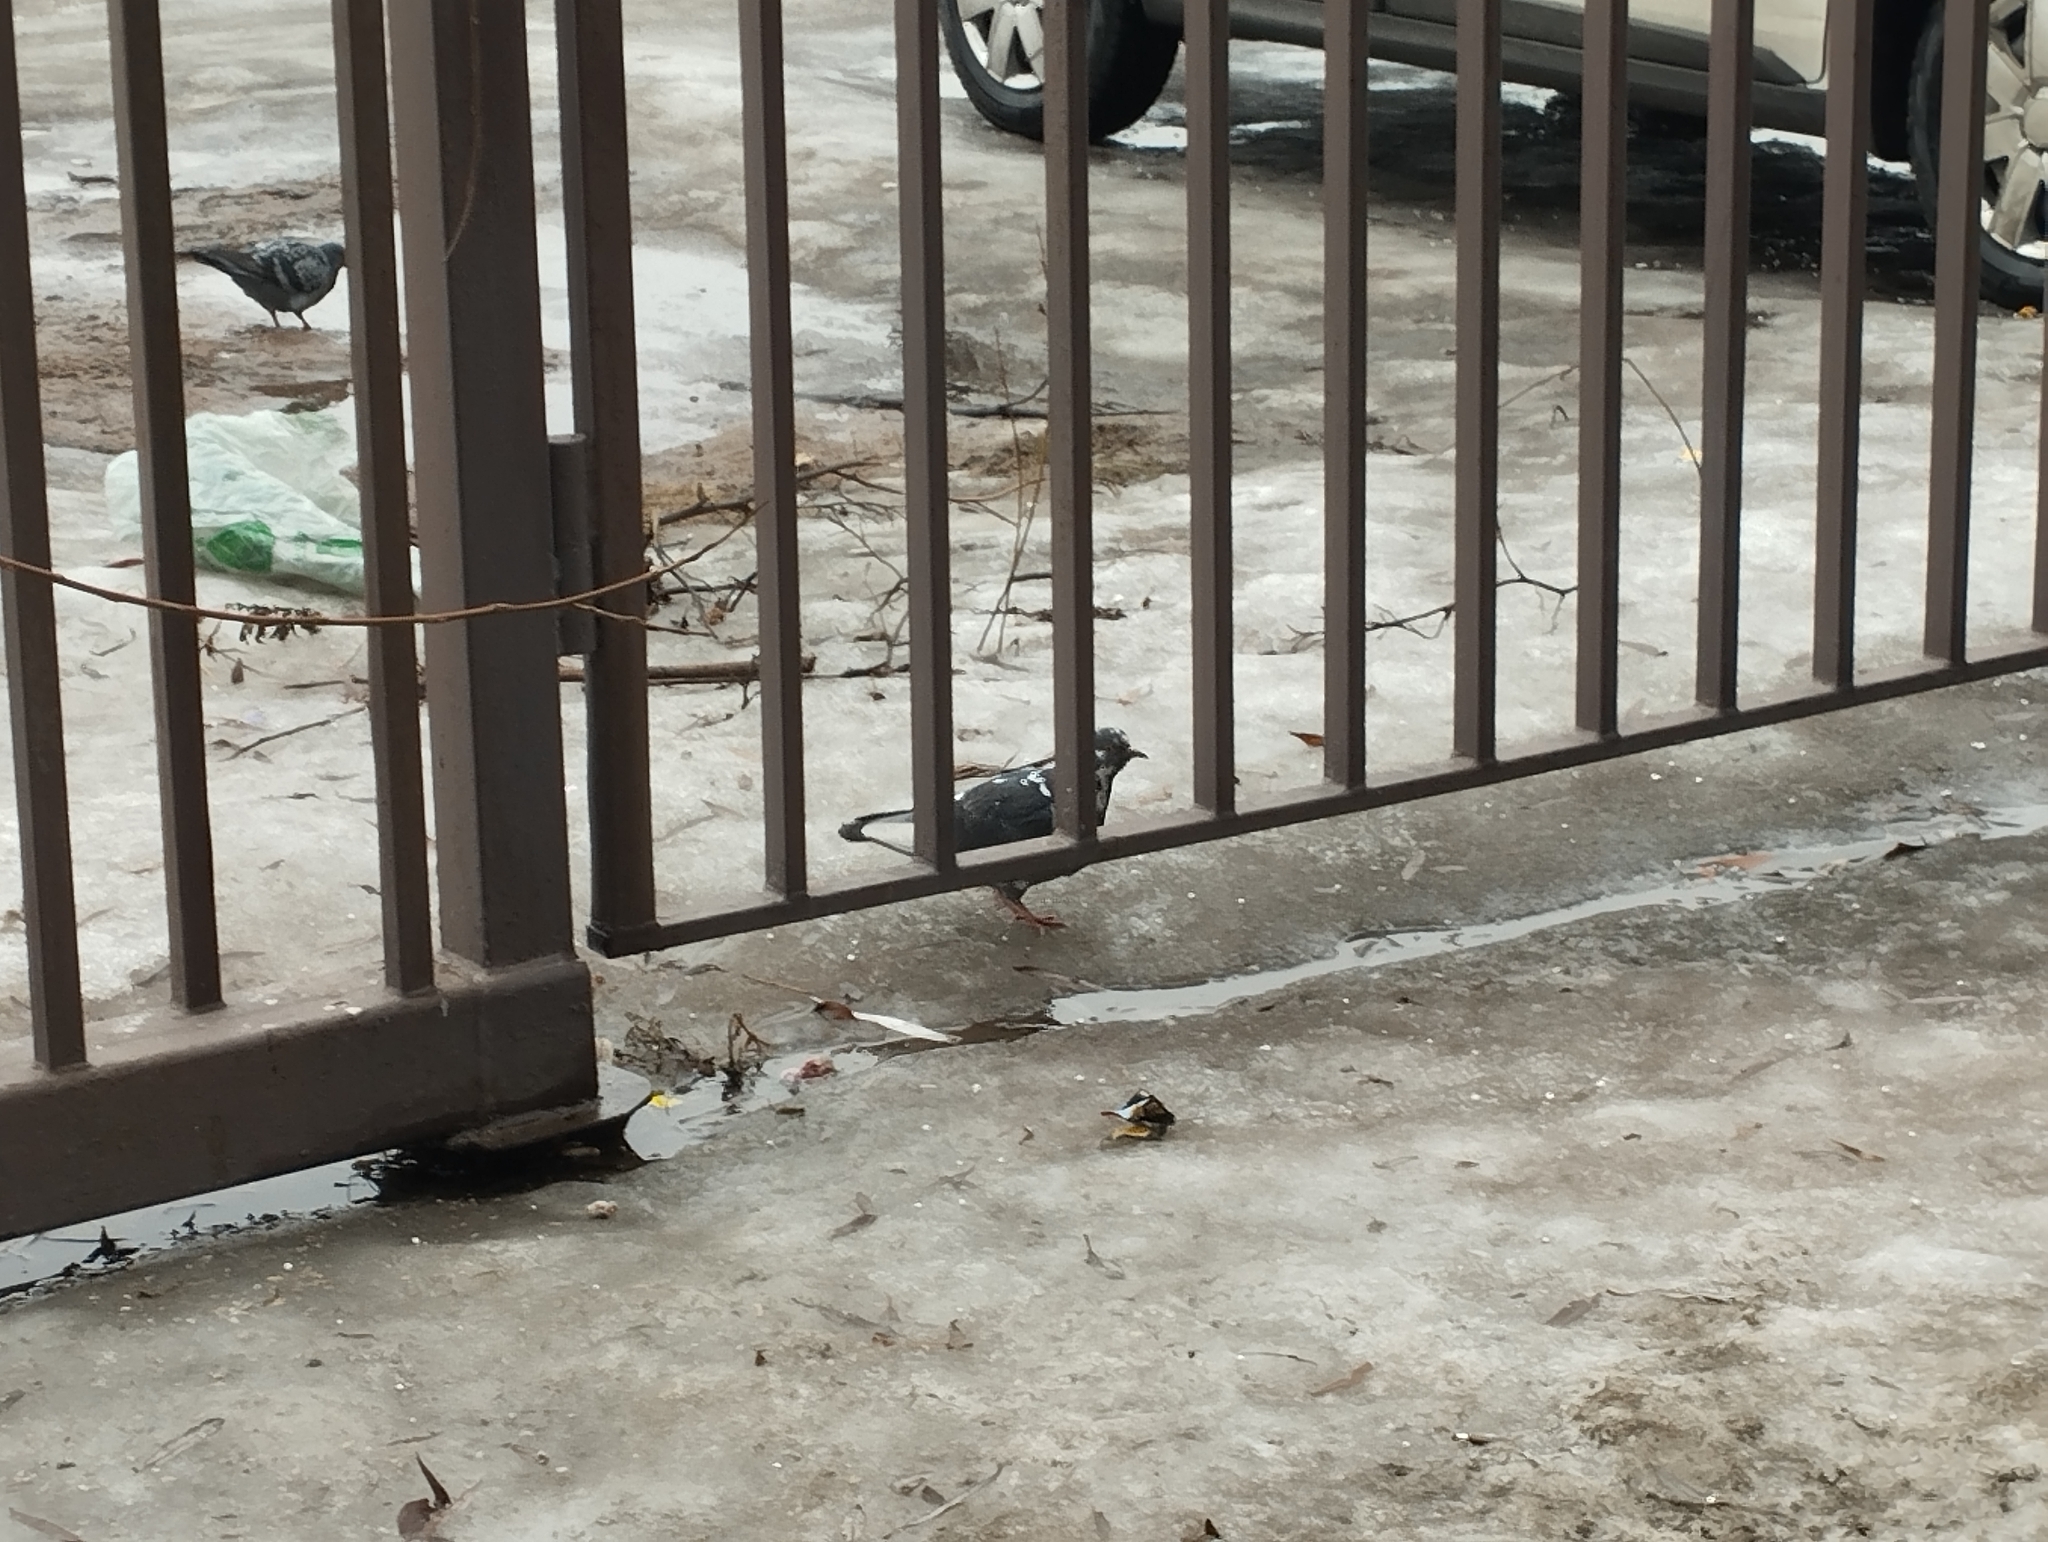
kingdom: Animalia
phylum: Chordata
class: Aves
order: Columbiformes
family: Columbidae
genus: Columba
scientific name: Columba livia
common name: Rock pigeon
